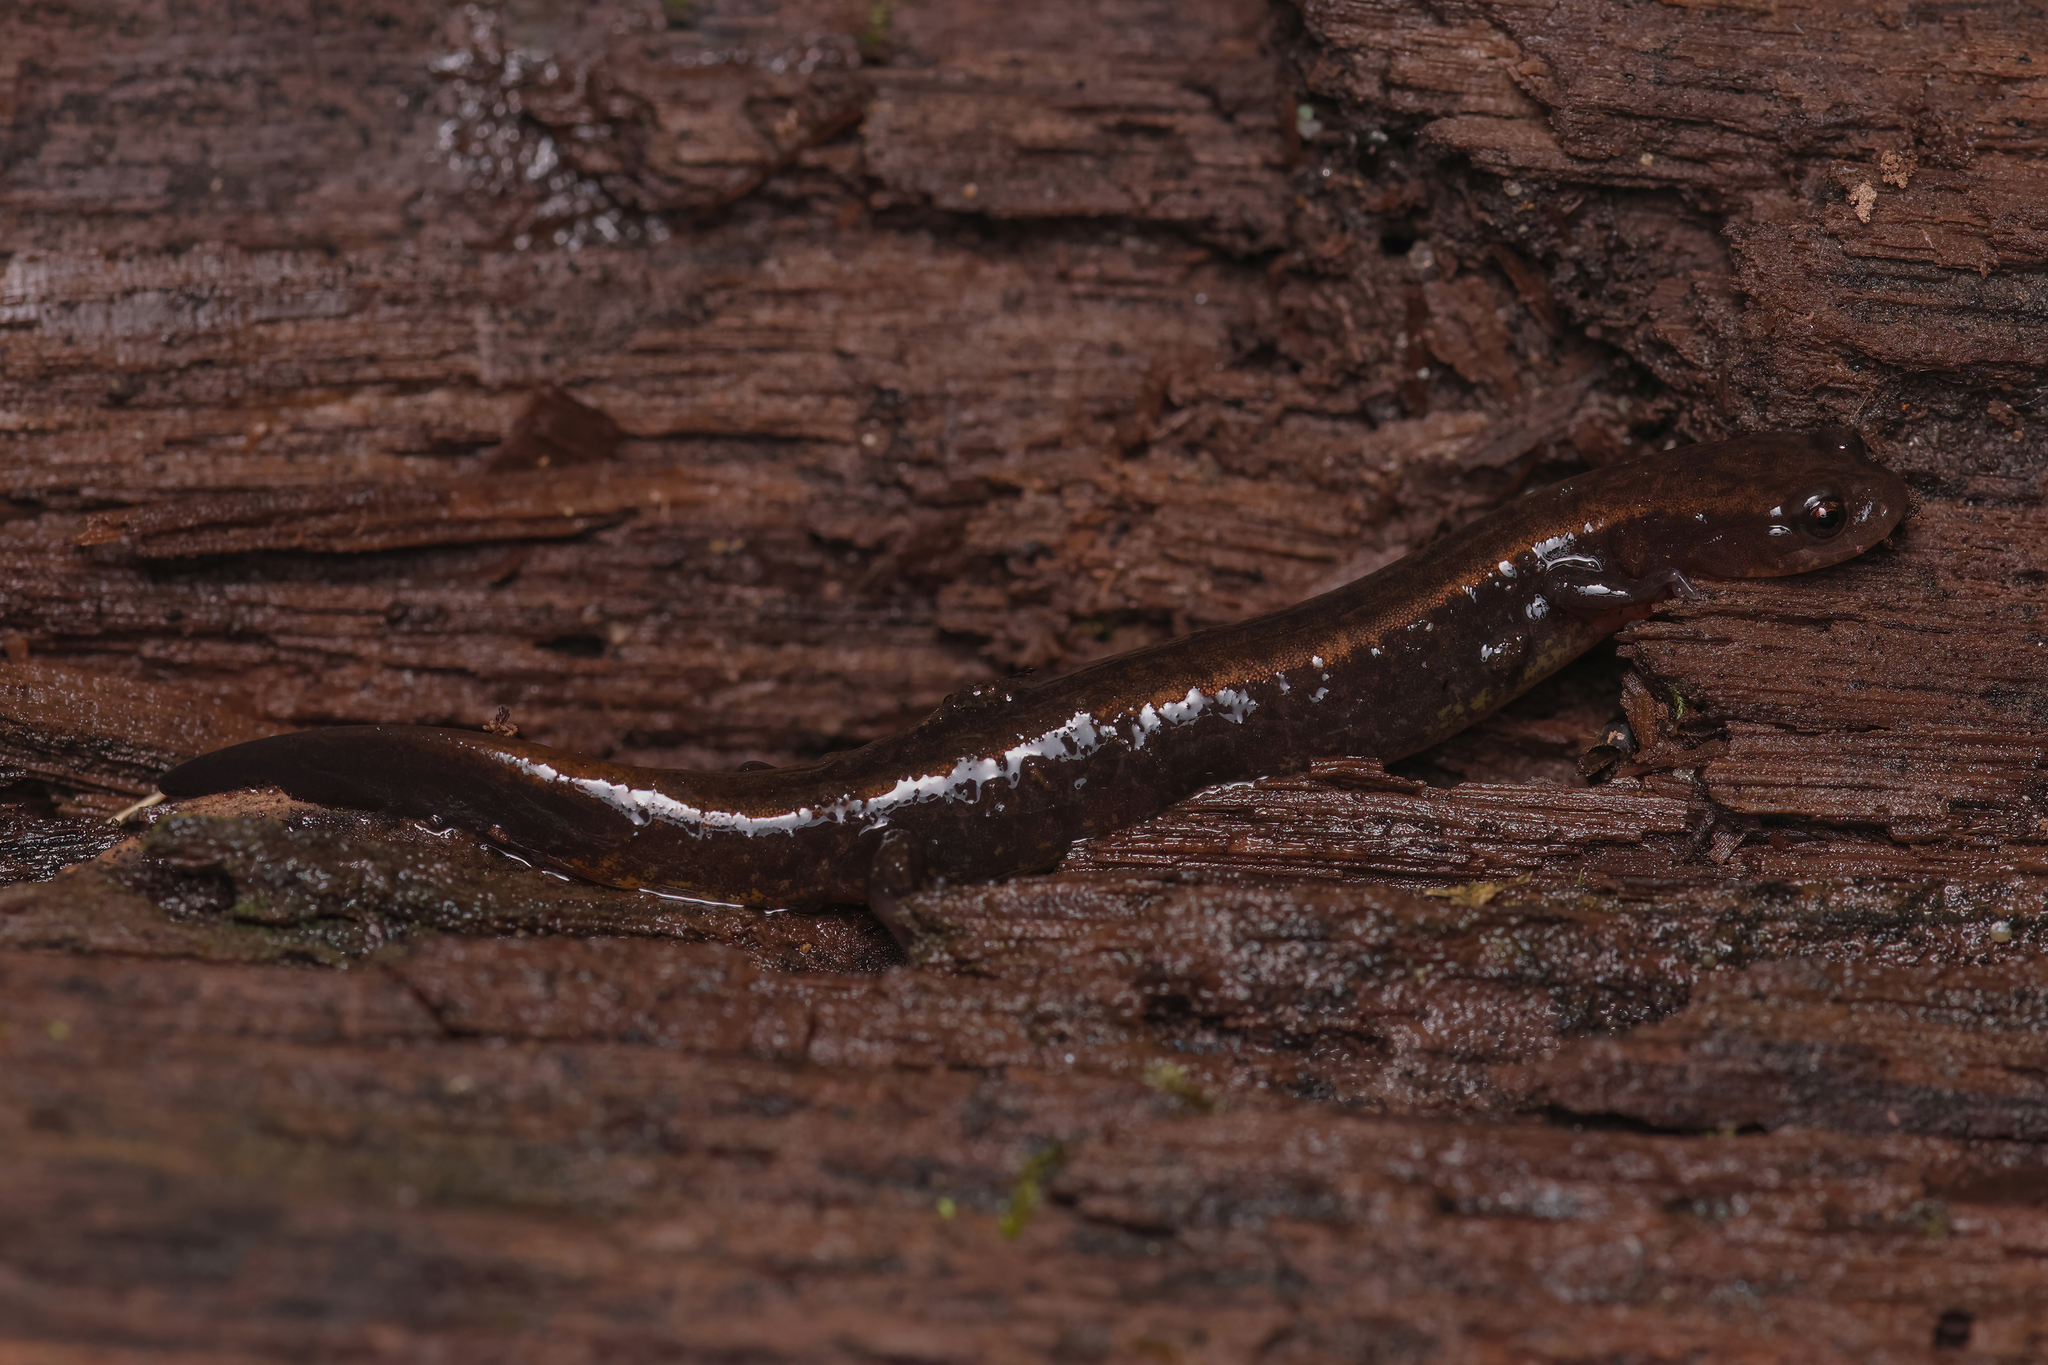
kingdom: Animalia
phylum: Chordata
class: Amphibia
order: Caudata
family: Plethodontidae
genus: Eurycea
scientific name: Eurycea bislineata
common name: Northern two-lined salamander
